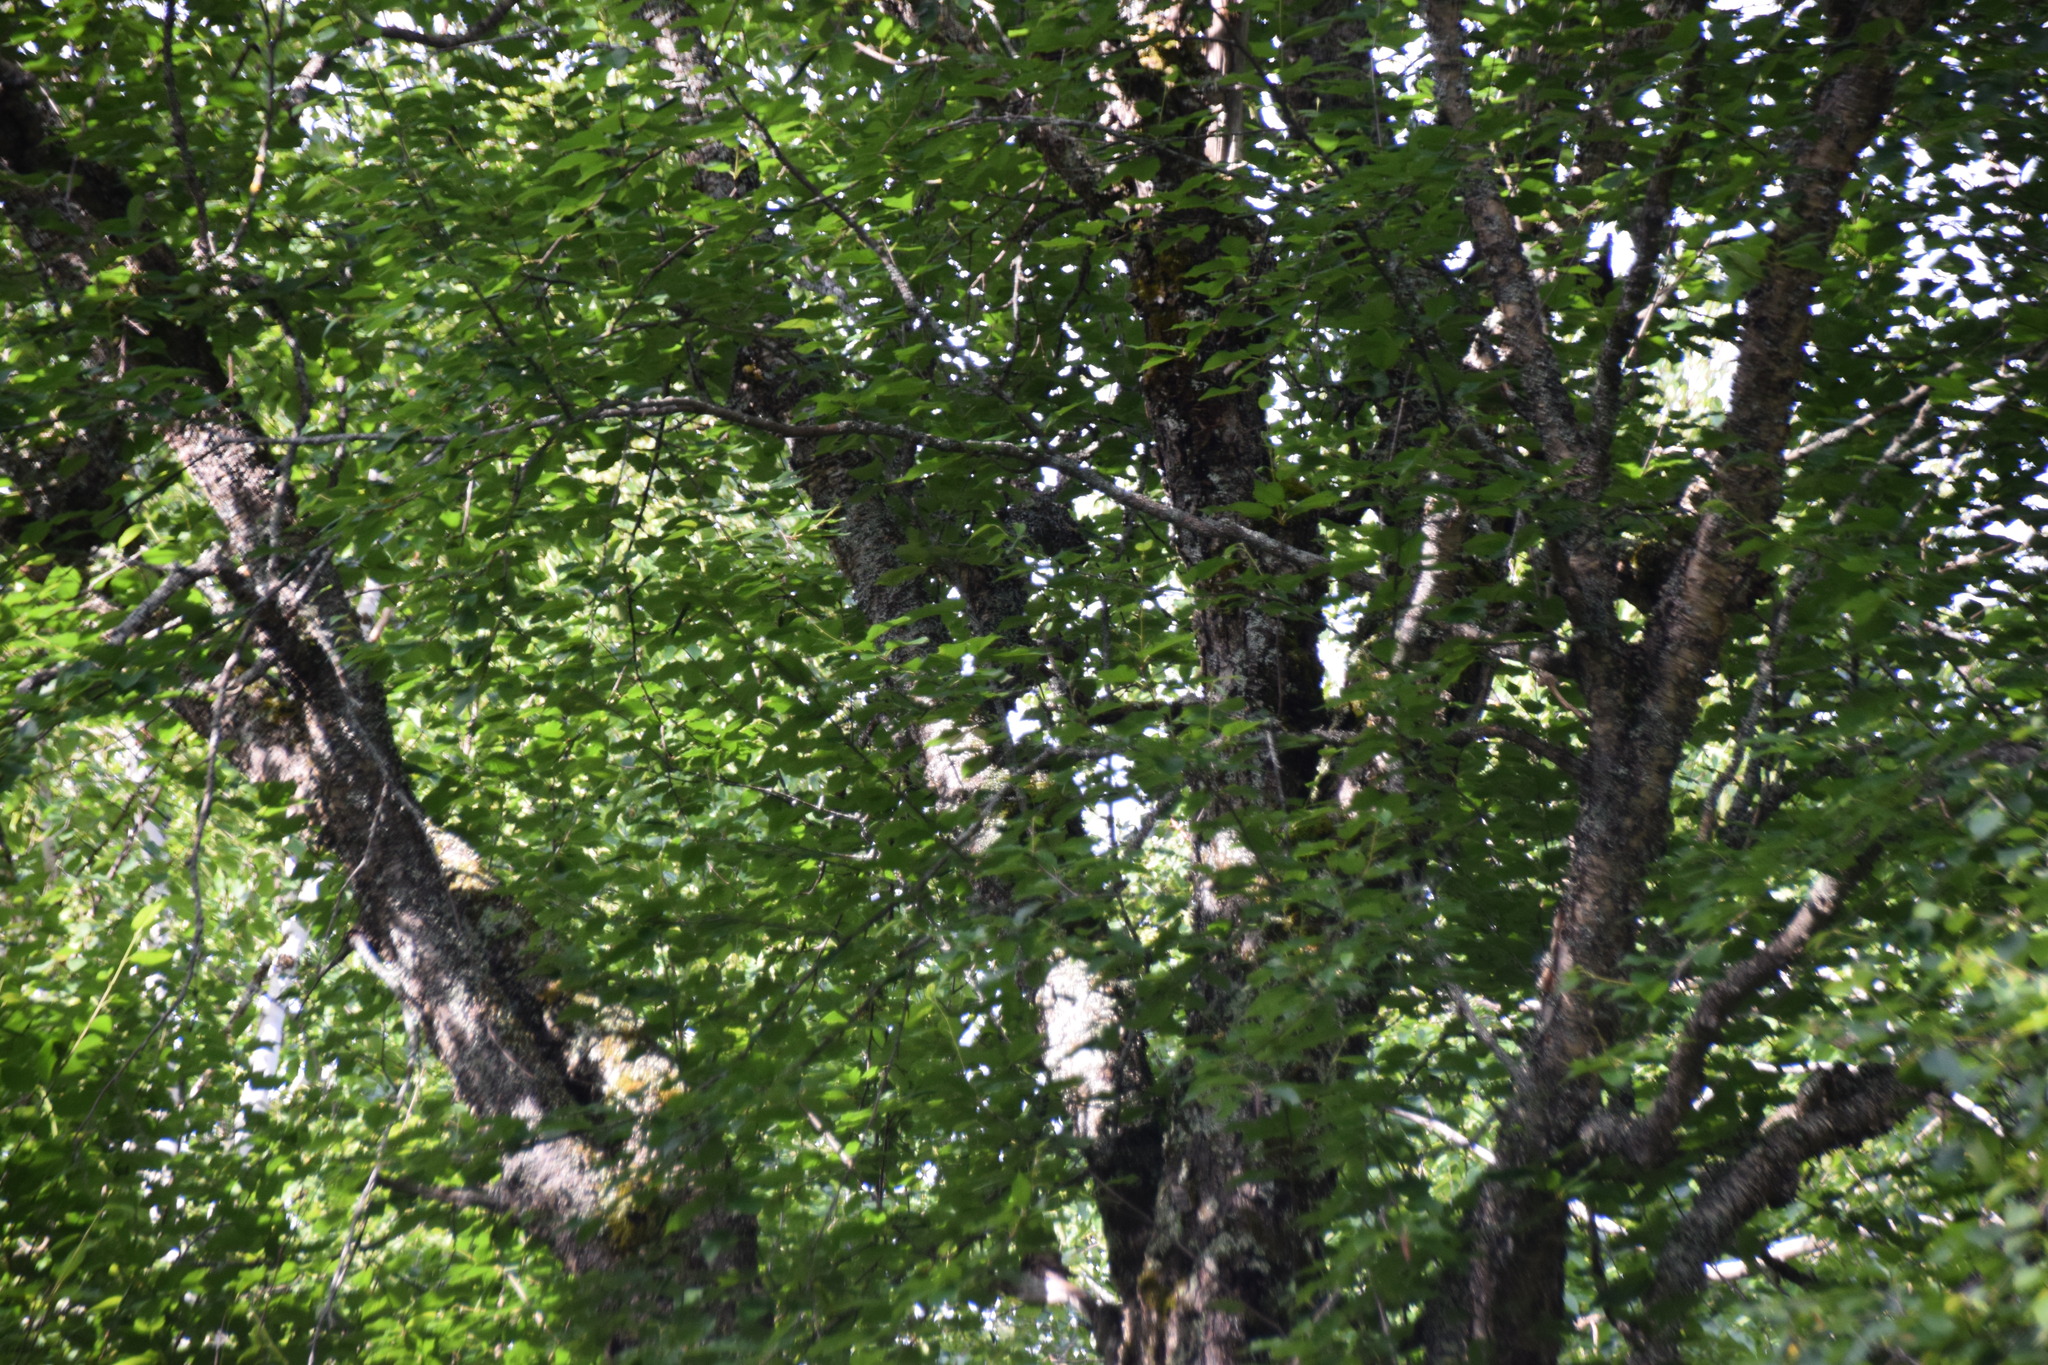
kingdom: Plantae
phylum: Tracheophyta
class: Magnoliopsida
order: Fagales
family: Betulaceae
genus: Betula
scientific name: Betula alleghaniensis
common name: Yellow birch
